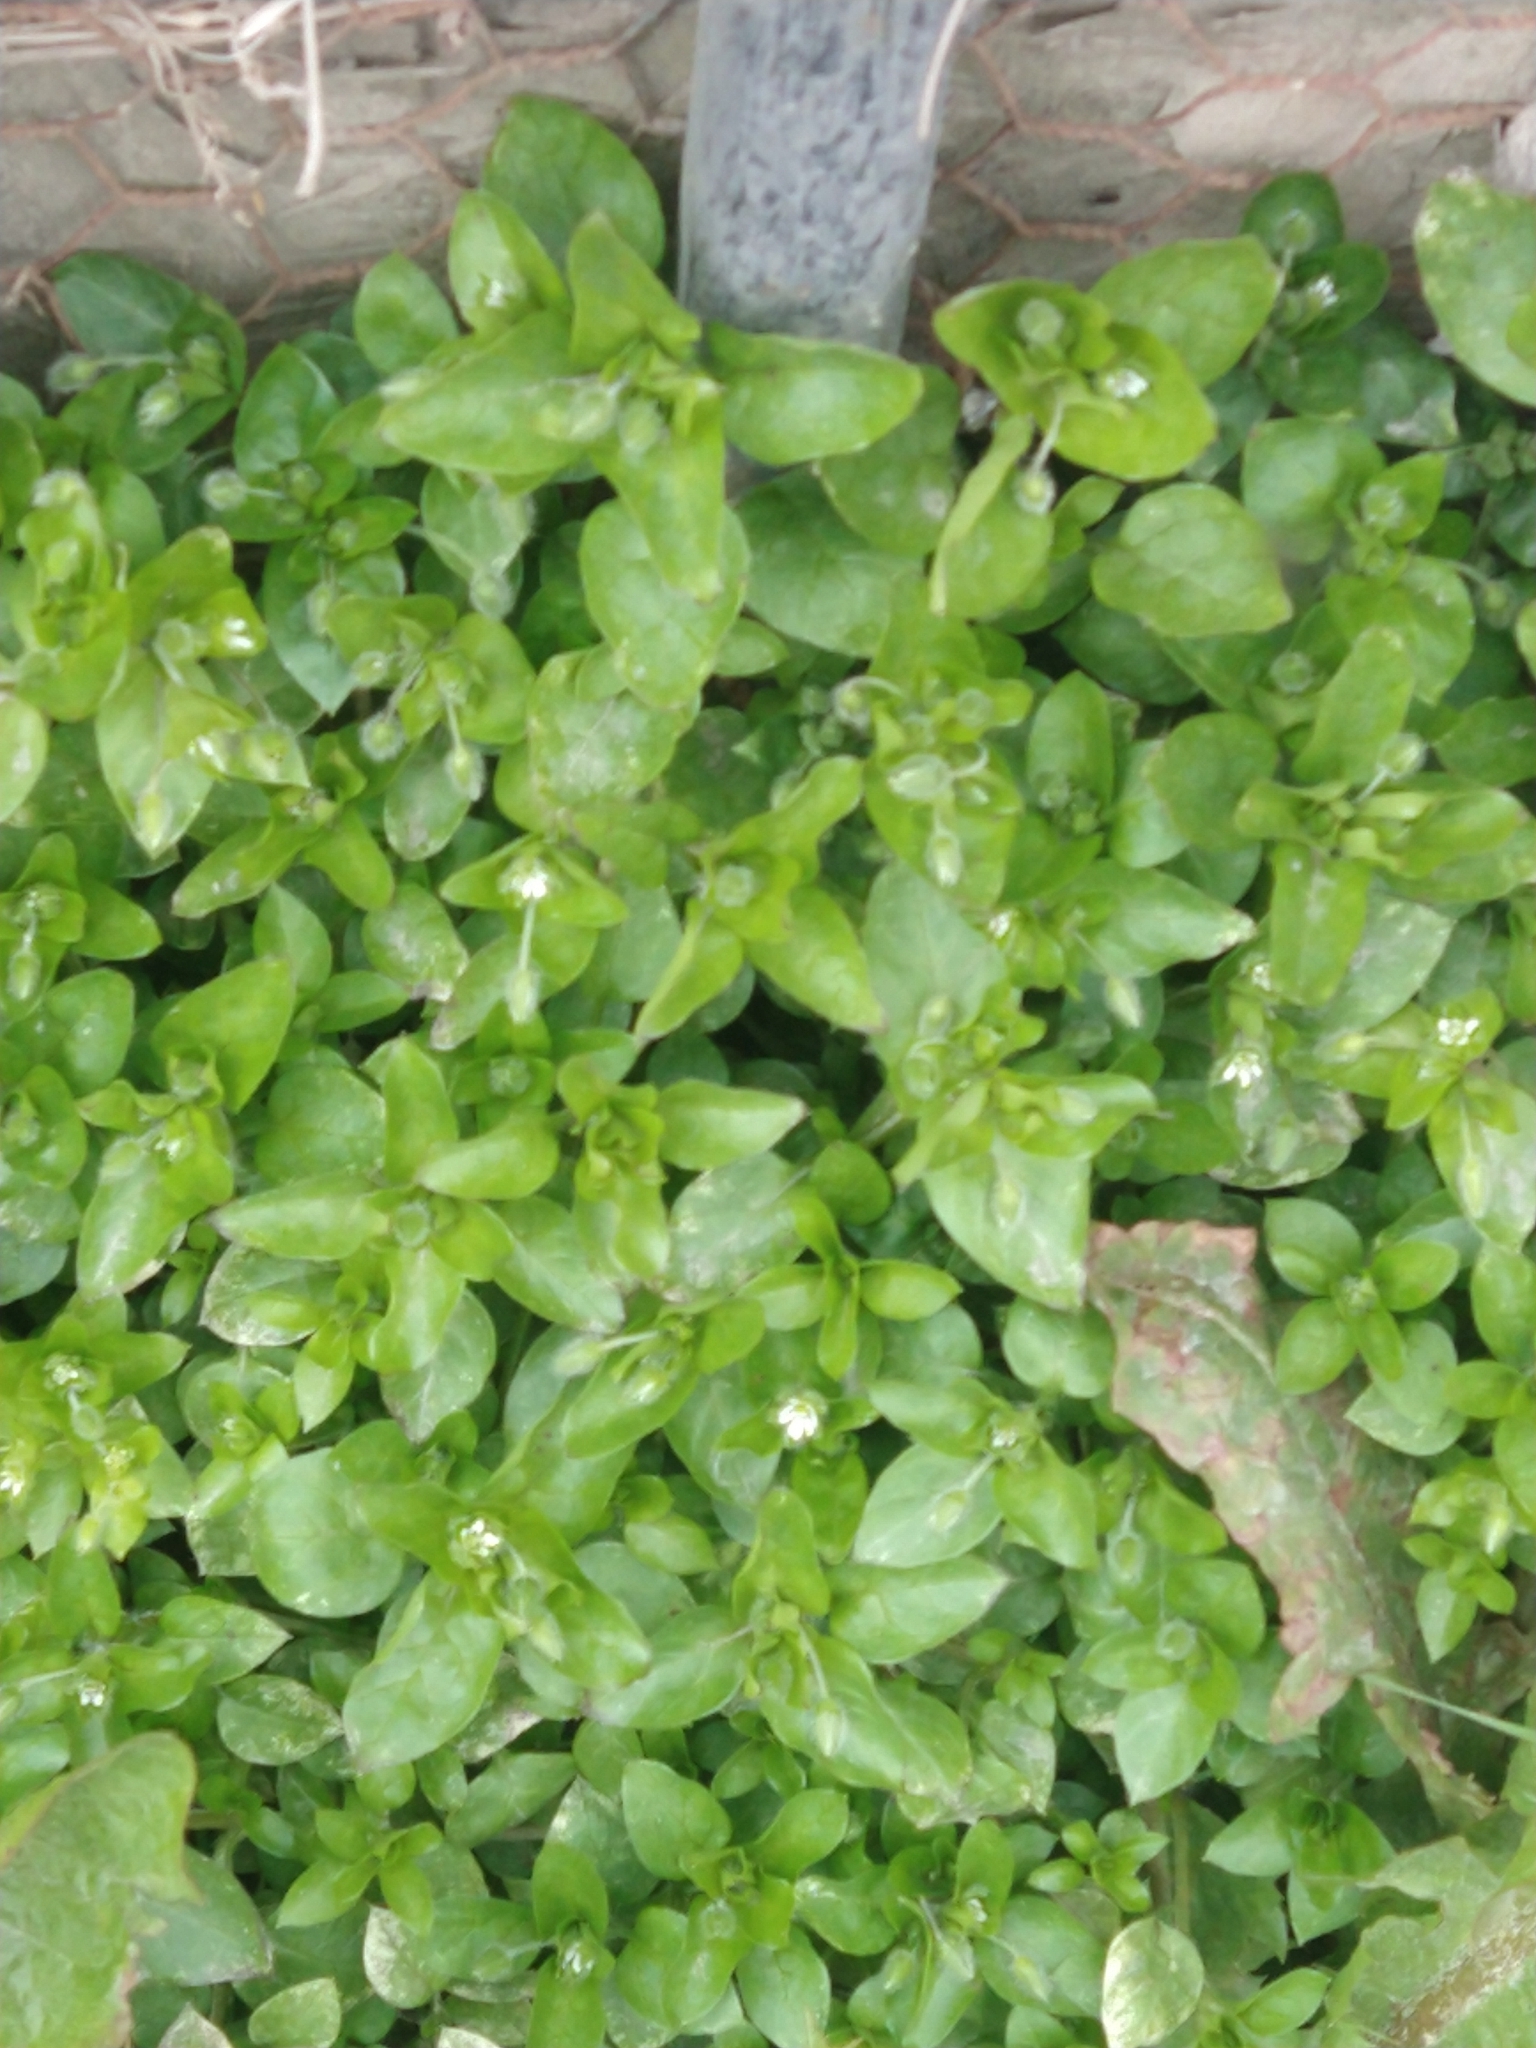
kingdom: Plantae
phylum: Tracheophyta
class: Magnoliopsida
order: Caryophyllales
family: Caryophyllaceae
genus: Stellaria
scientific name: Stellaria media
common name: Common chickweed
